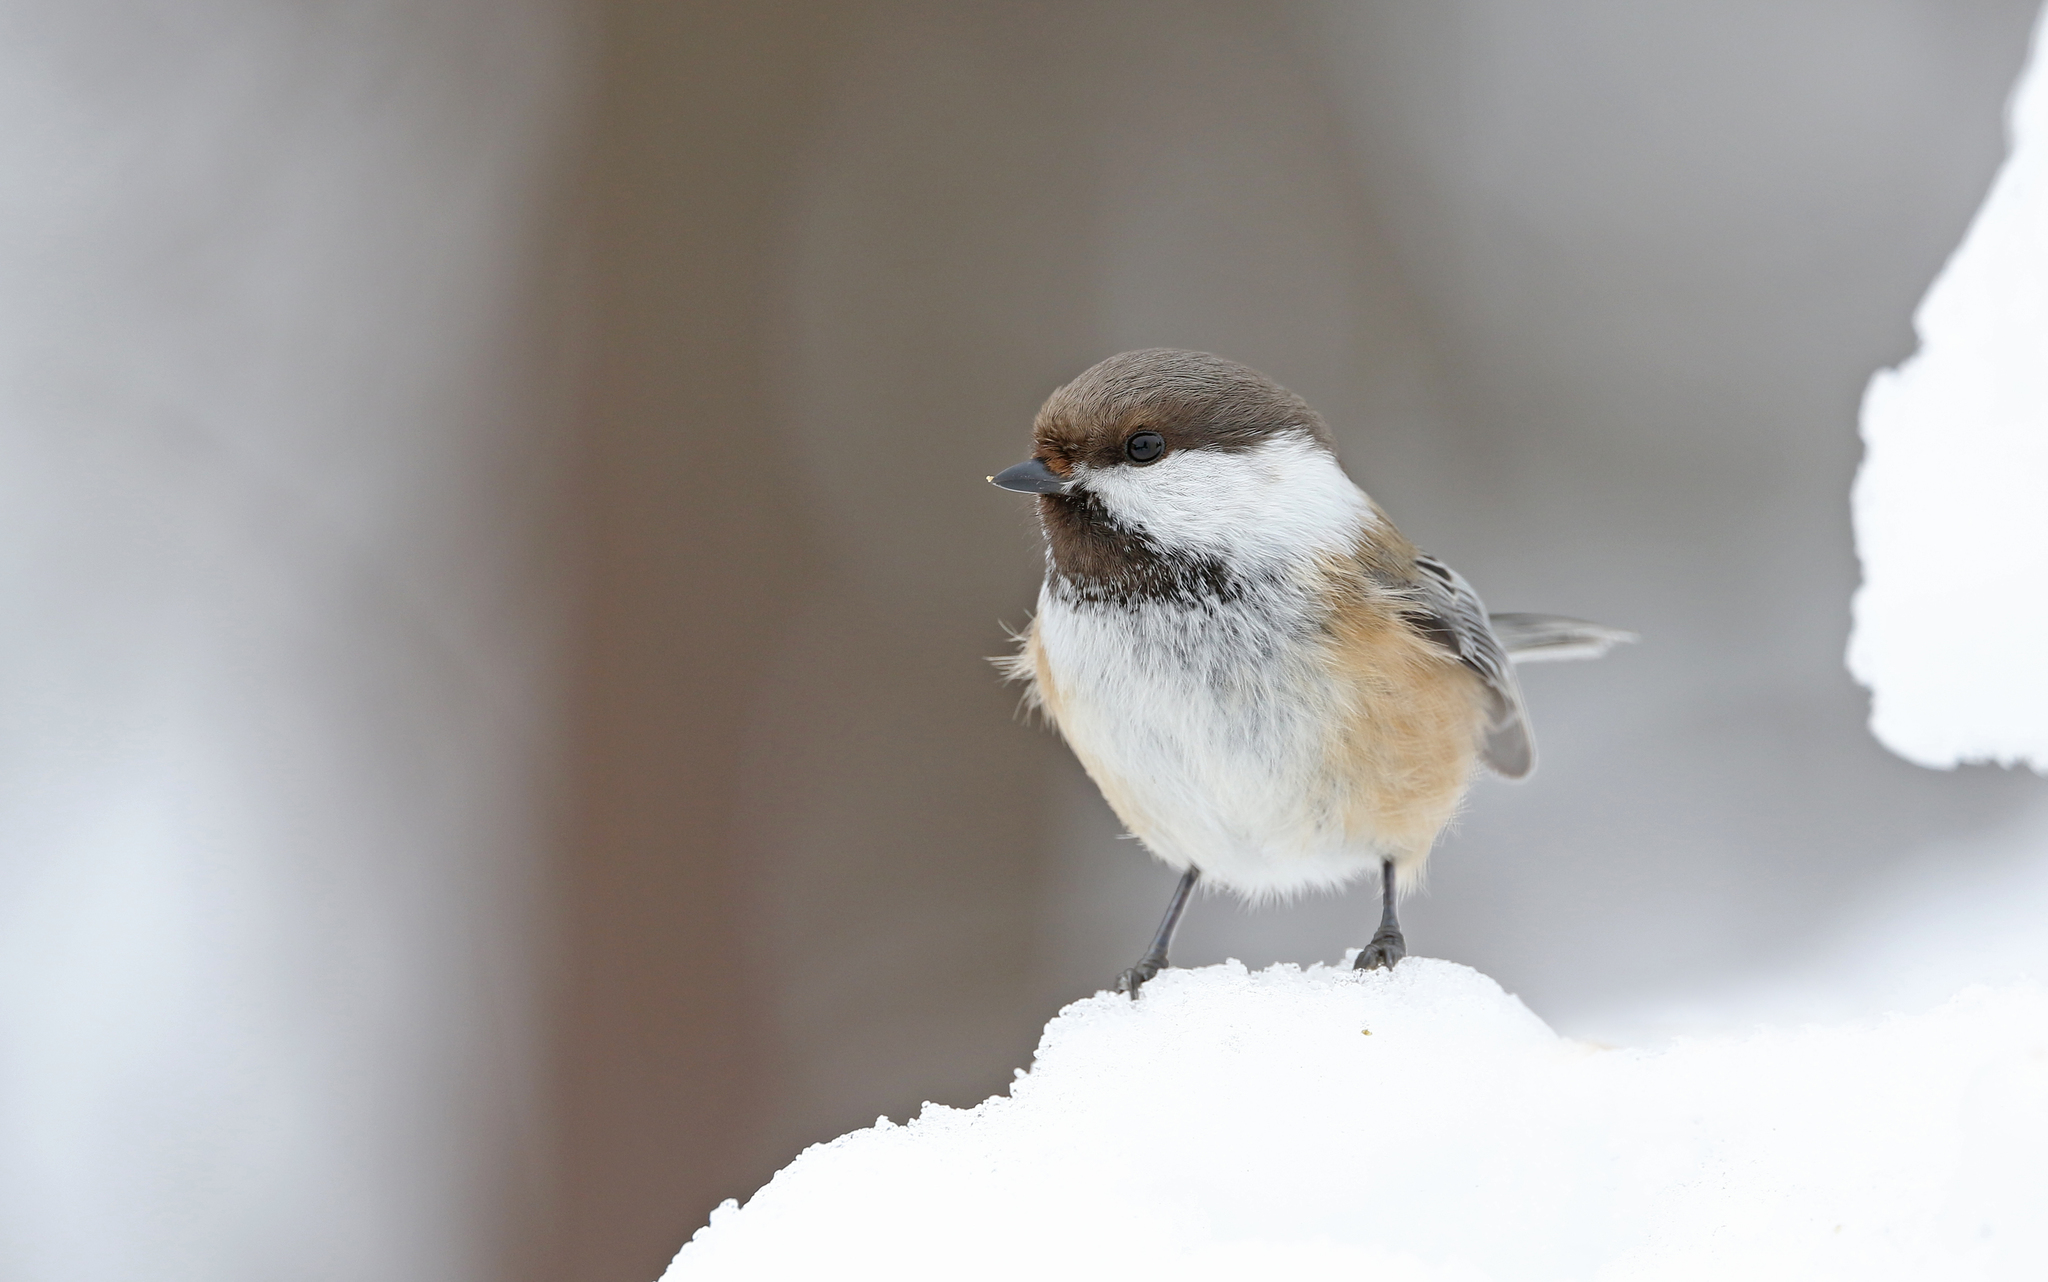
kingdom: Animalia
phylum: Chordata
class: Aves
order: Passeriformes
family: Paridae
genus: Poecile
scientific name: Poecile cinctus
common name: Gray-headed chickadee
